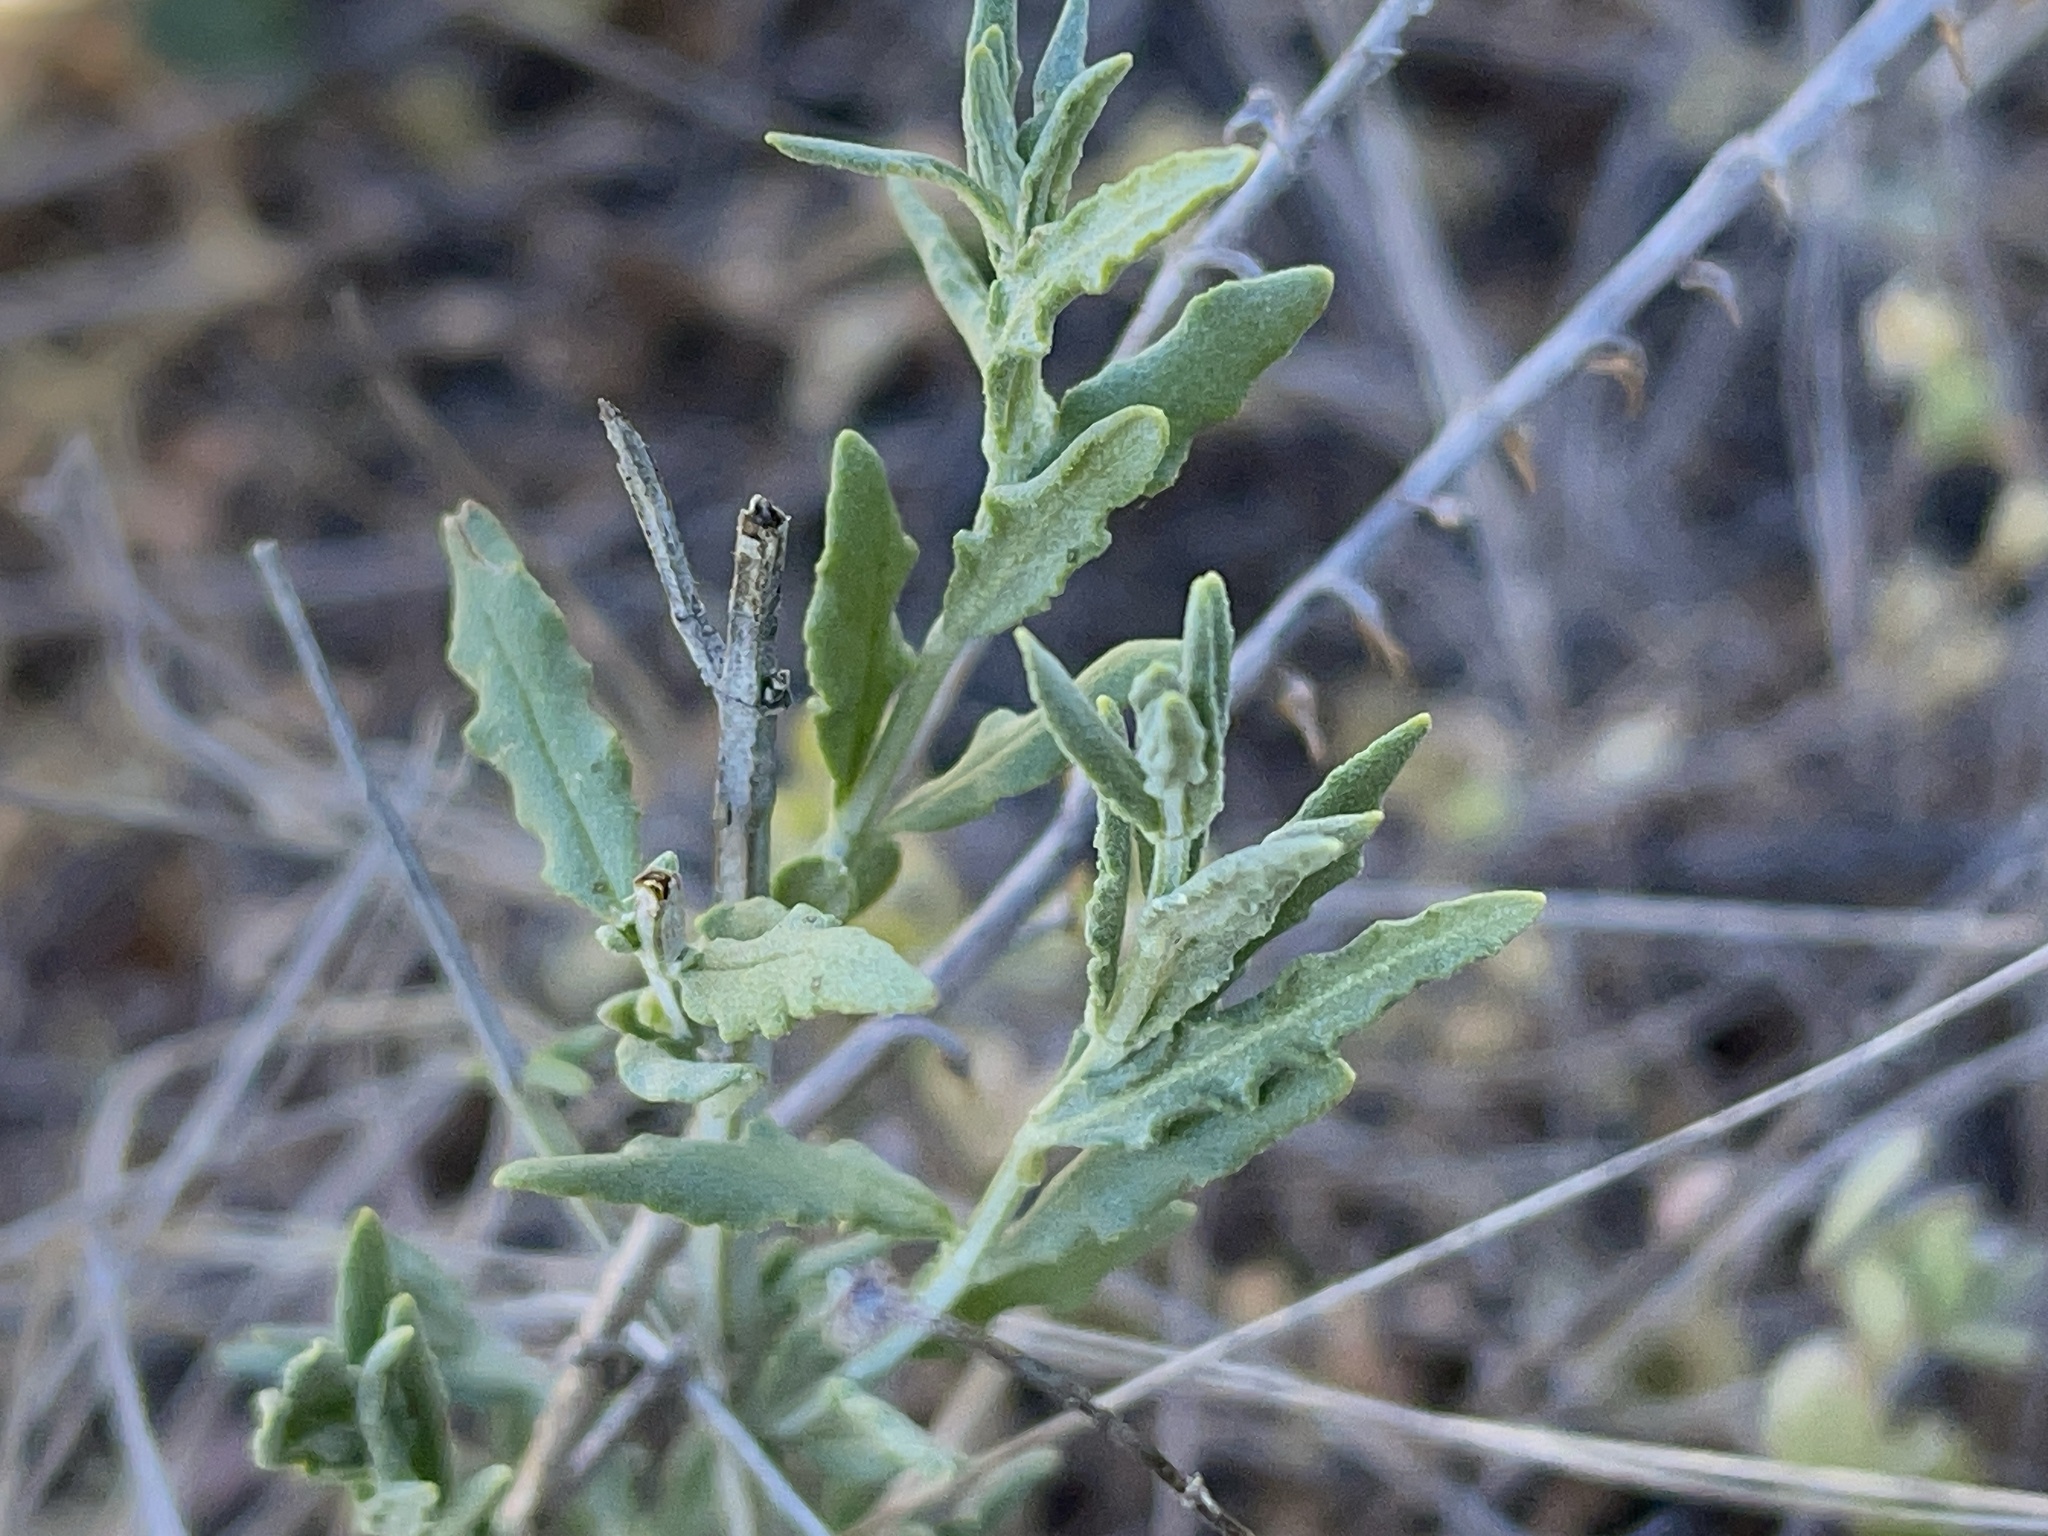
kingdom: Plantae
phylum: Tracheophyta
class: Magnoliopsida
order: Lamiales
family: Lamiaceae
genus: Teucrium
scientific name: Teucrium racemosum
